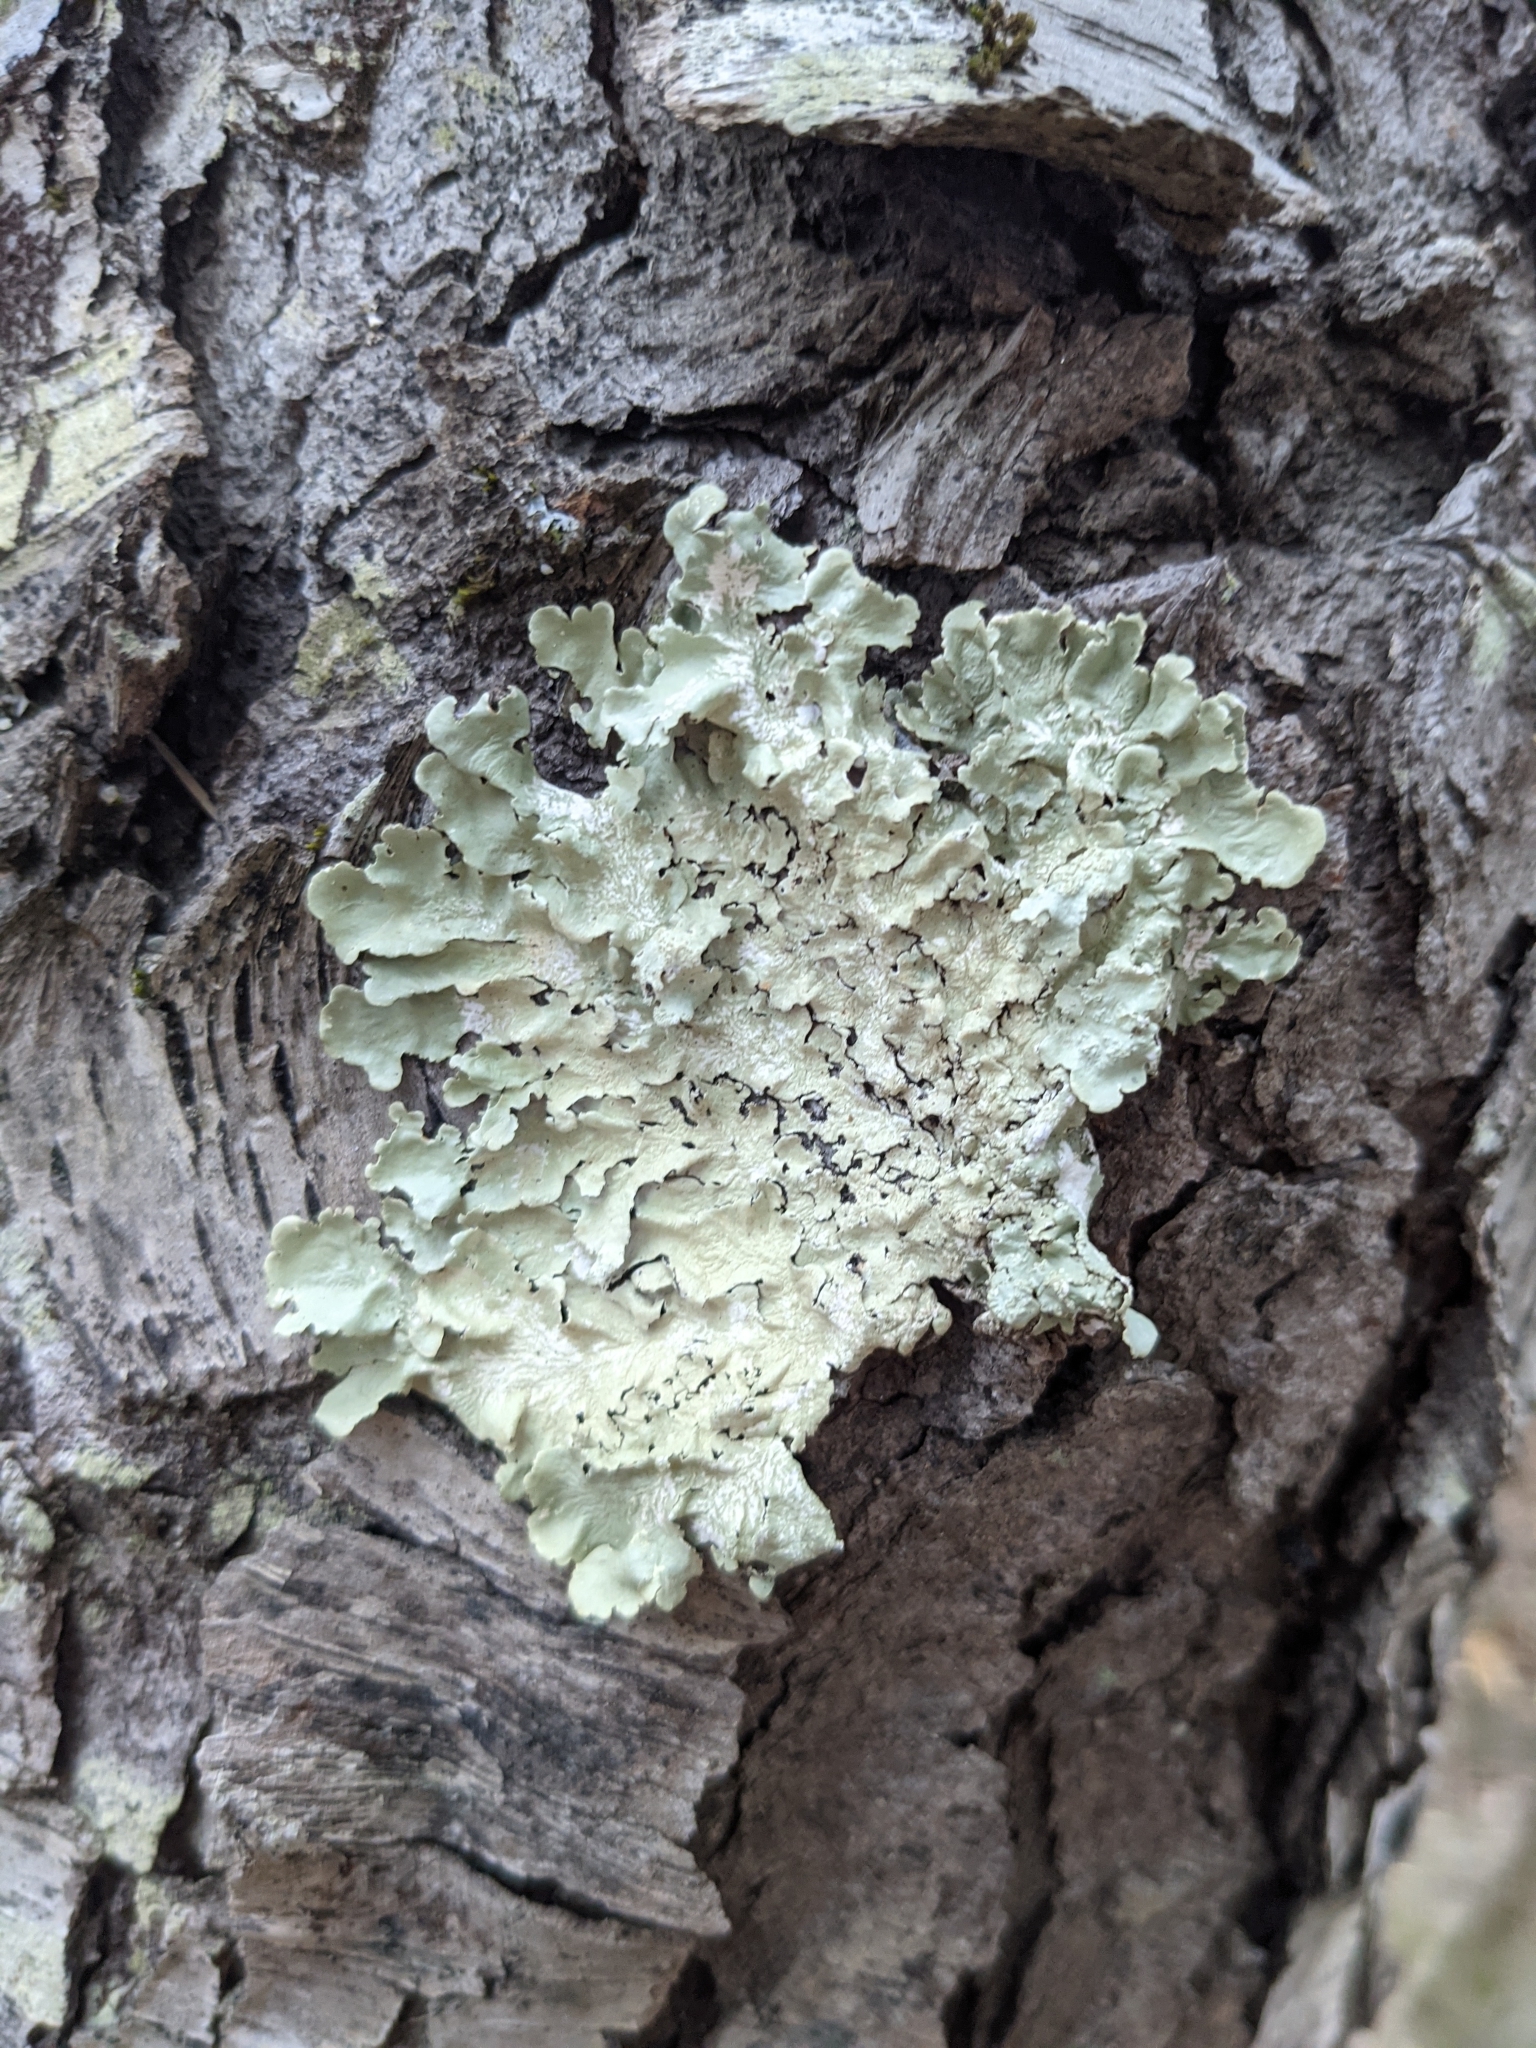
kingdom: Fungi
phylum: Ascomycota
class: Lecanoromycetes
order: Lecanorales
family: Parmeliaceae
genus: Flavoparmelia
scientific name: Flavoparmelia caperata
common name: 40-mile per hour lichen
